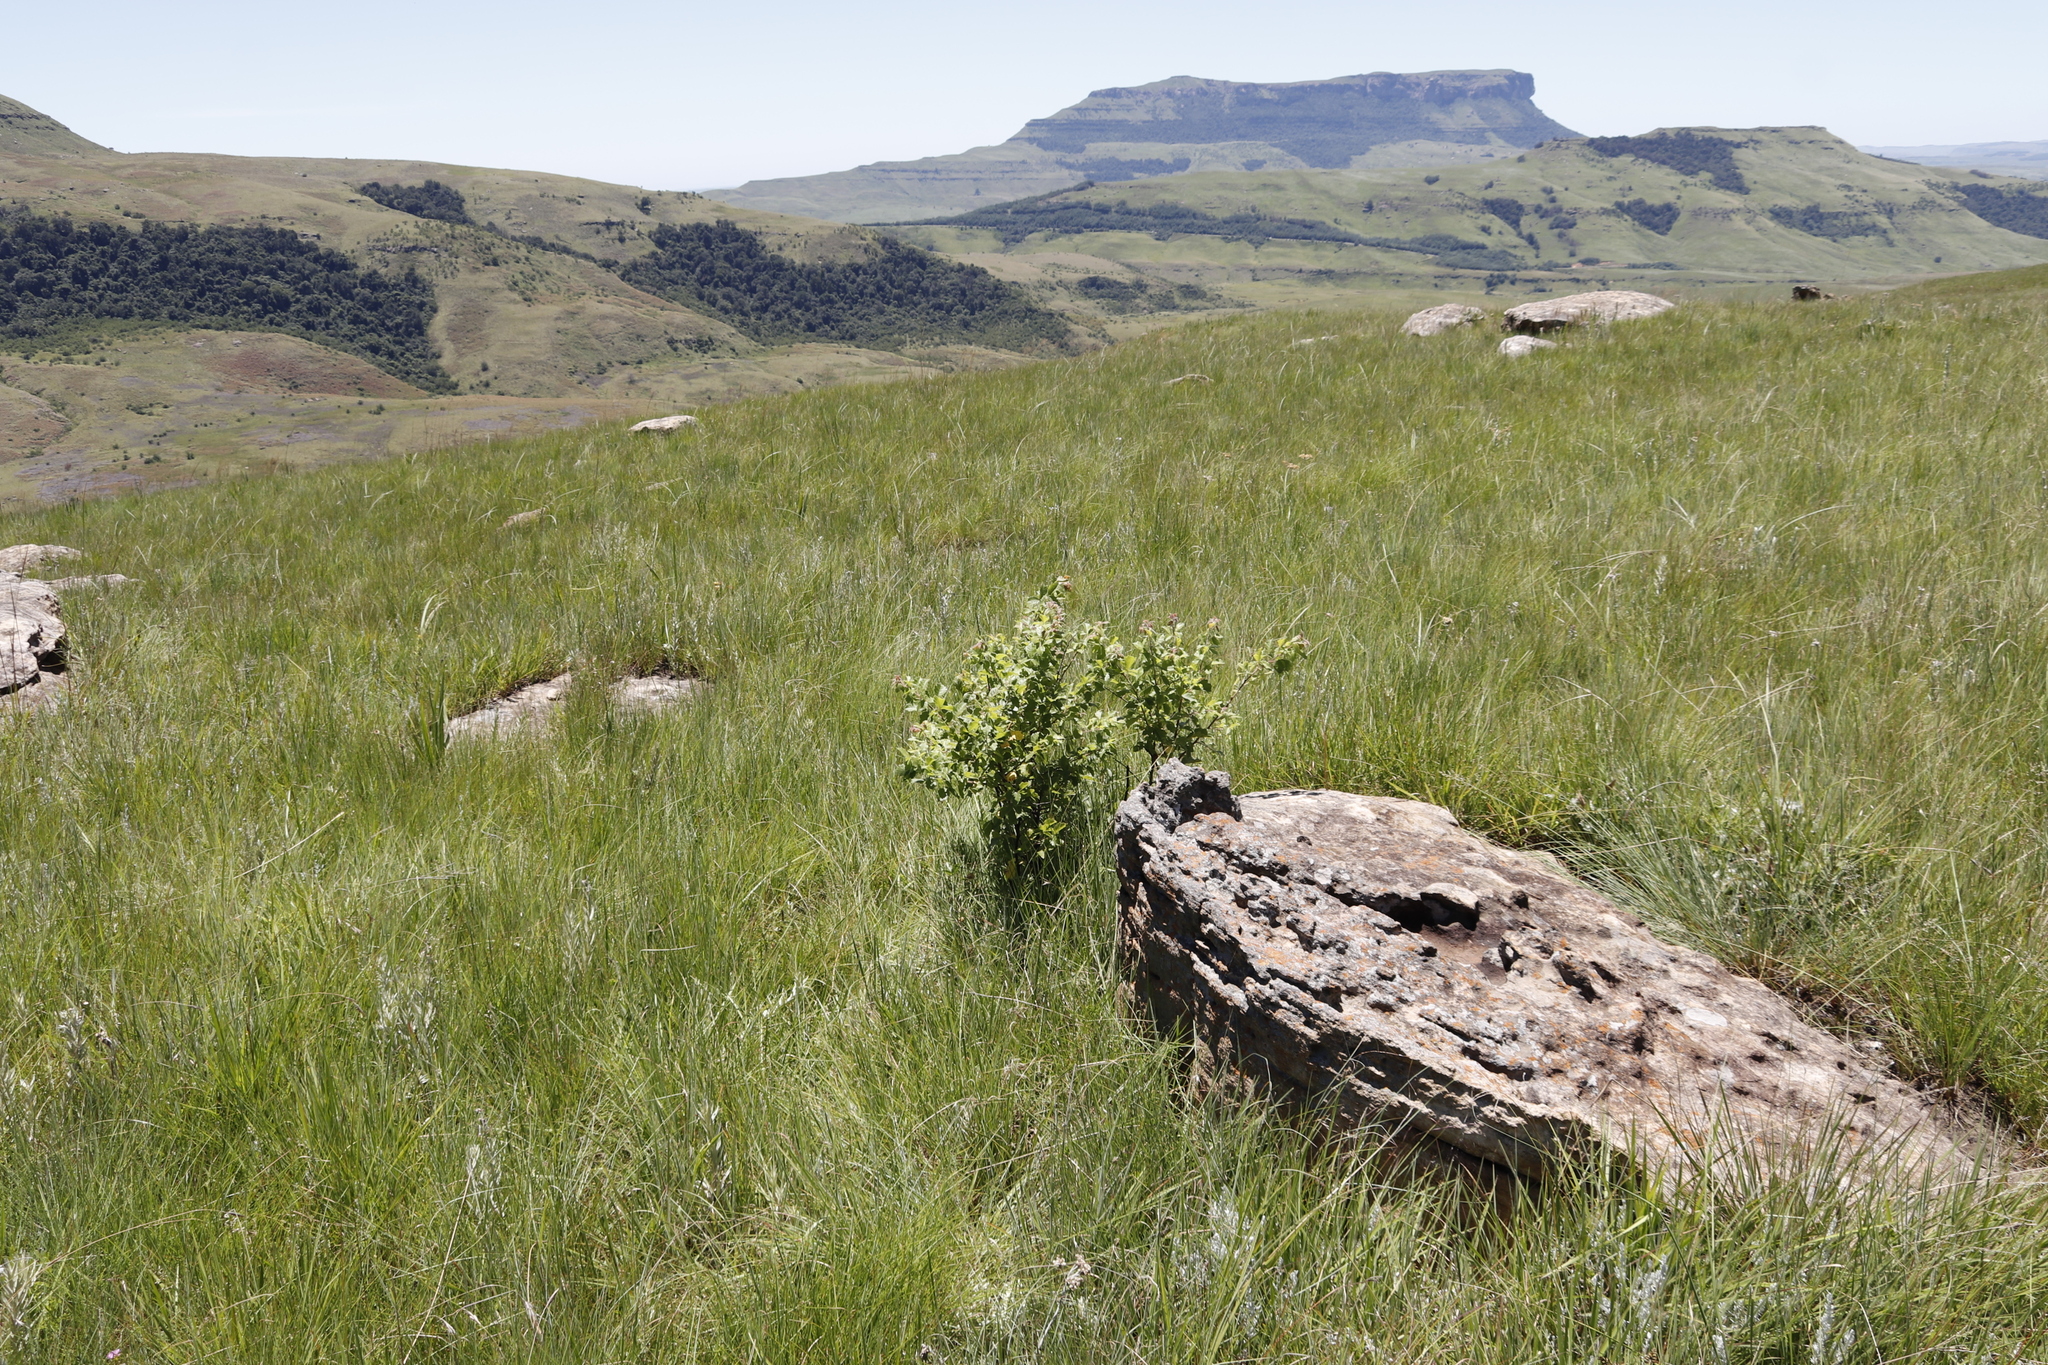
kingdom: Plantae
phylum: Tracheophyta
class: Magnoliopsida
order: Sapindales
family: Anacardiaceae
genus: Searsia
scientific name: Searsia dentata
